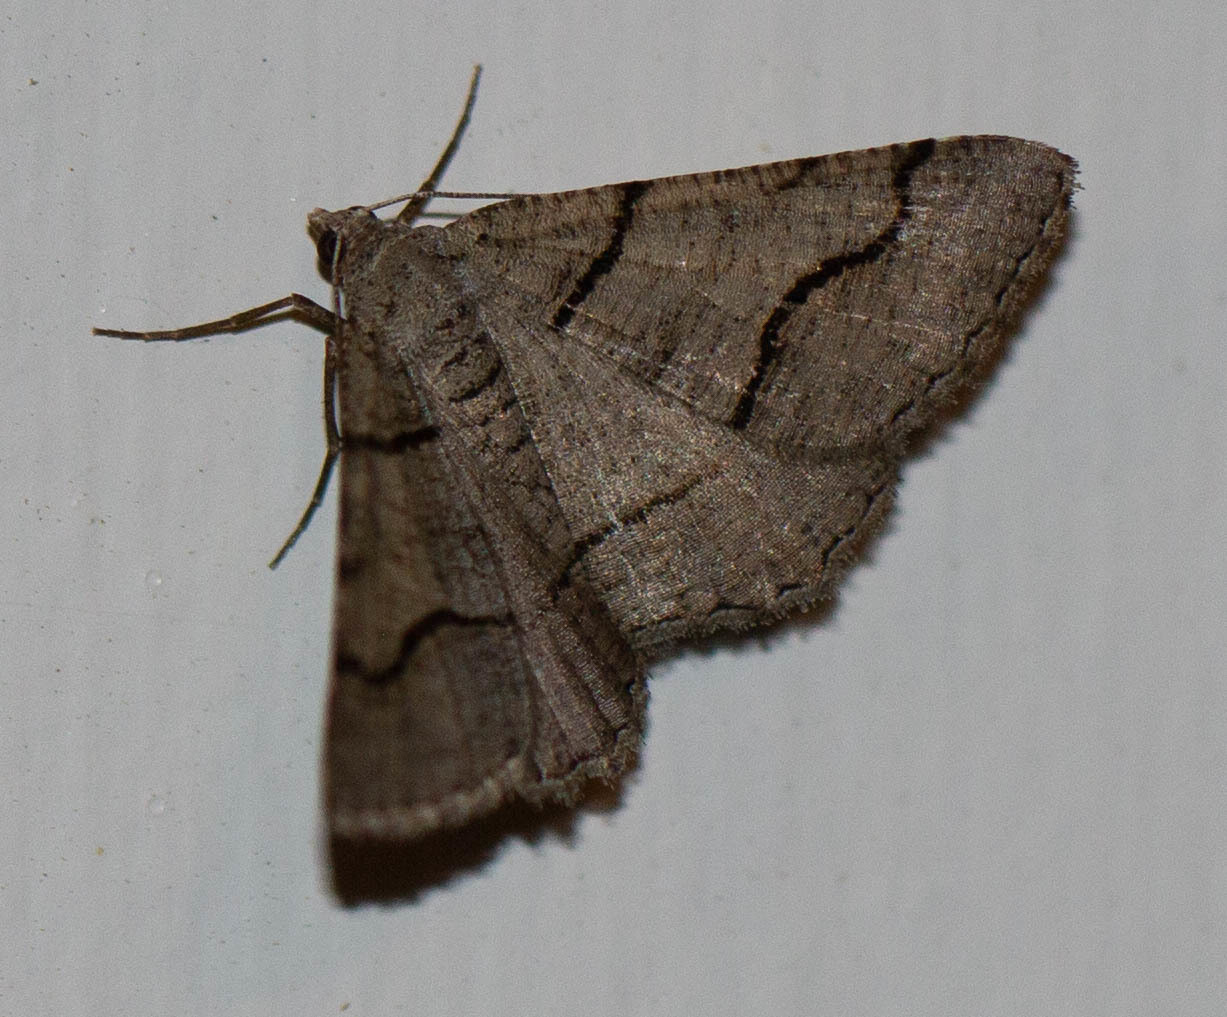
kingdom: Animalia
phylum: Arthropoda
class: Insecta
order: Lepidoptera
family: Geometridae
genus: Digrammia
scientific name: Digrammia continuata
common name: Curve-lined angle
